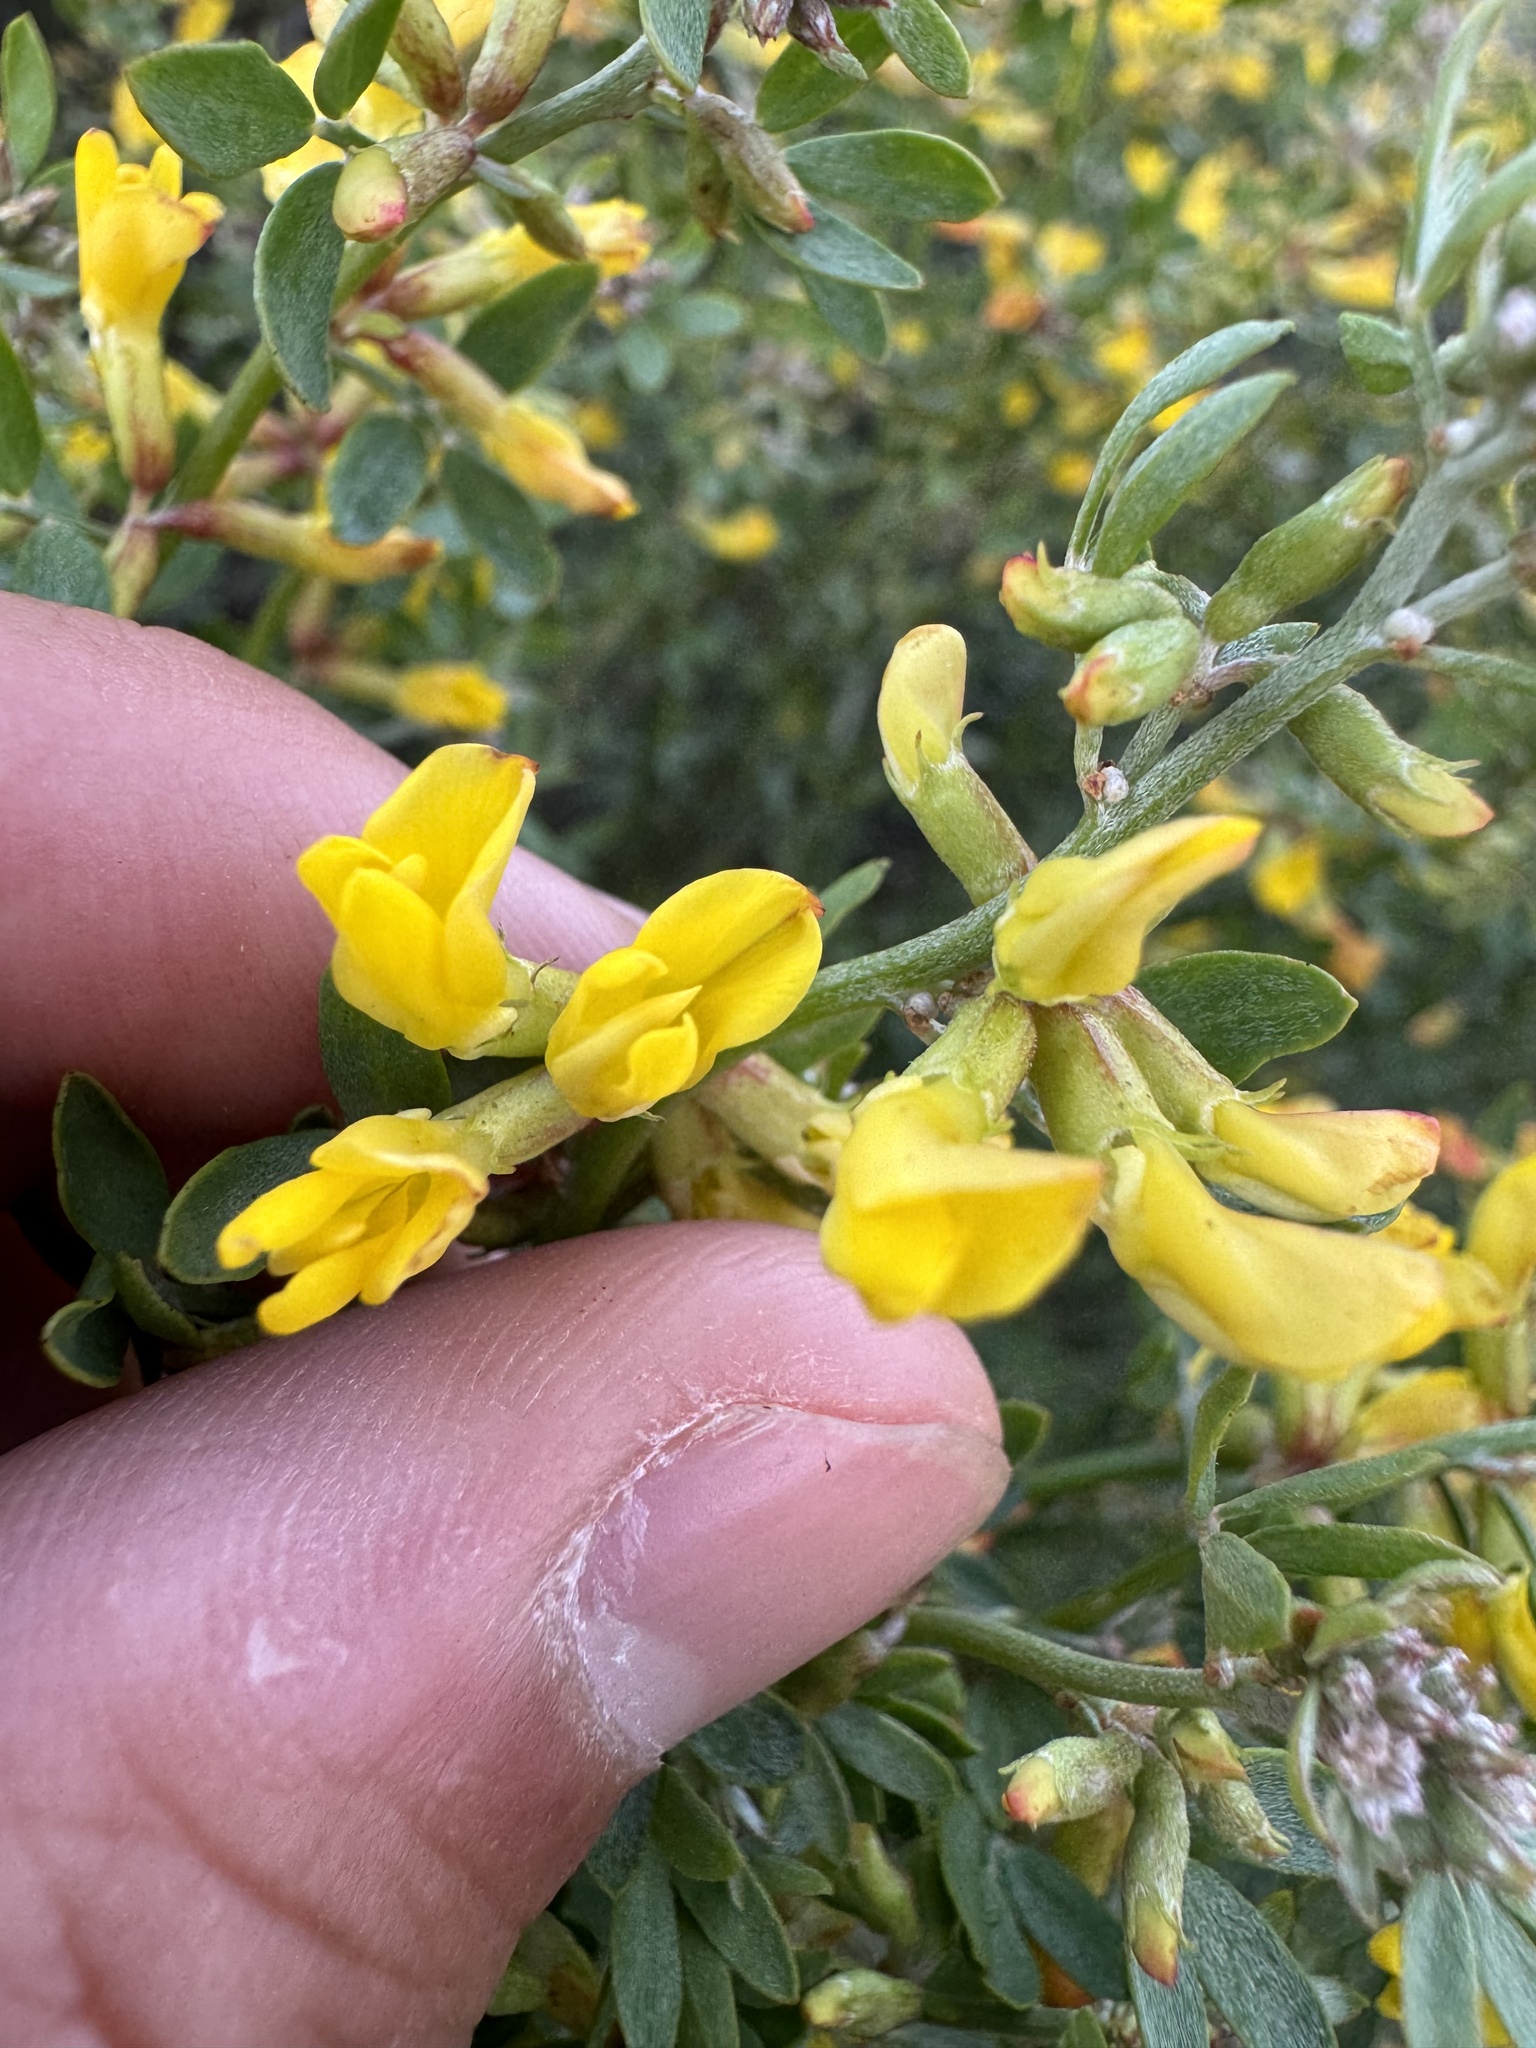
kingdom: Plantae
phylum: Tracheophyta
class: Magnoliopsida
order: Fabales
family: Fabaceae
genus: Acmispon
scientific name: Acmispon dendroideus
